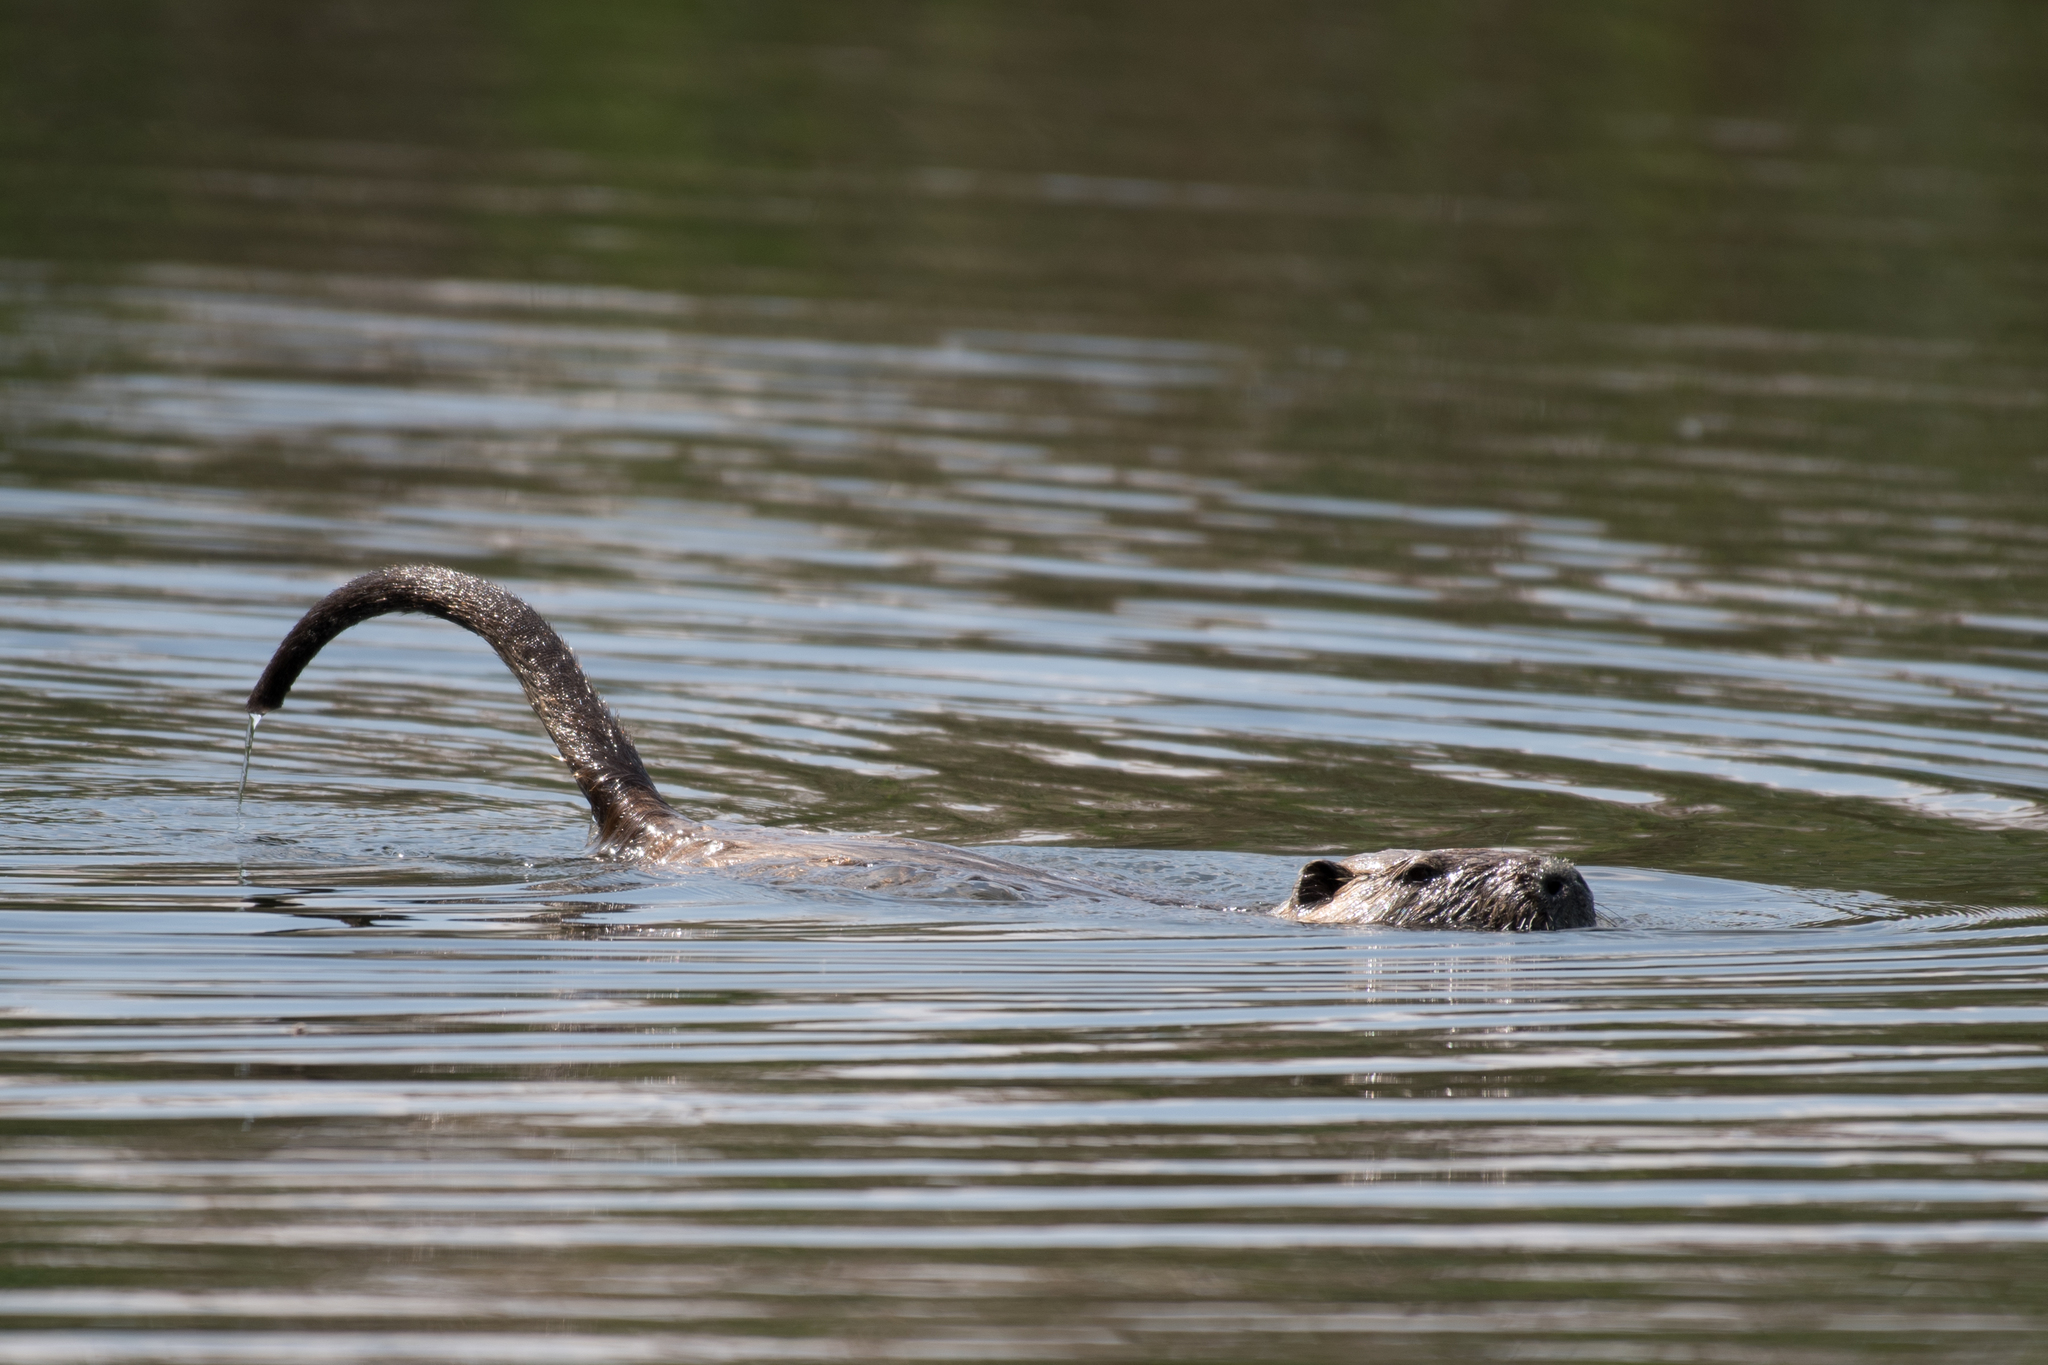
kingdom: Animalia
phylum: Chordata
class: Mammalia
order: Rodentia
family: Myocastoridae
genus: Myocastor
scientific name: Myocastor coypus
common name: Coypu
